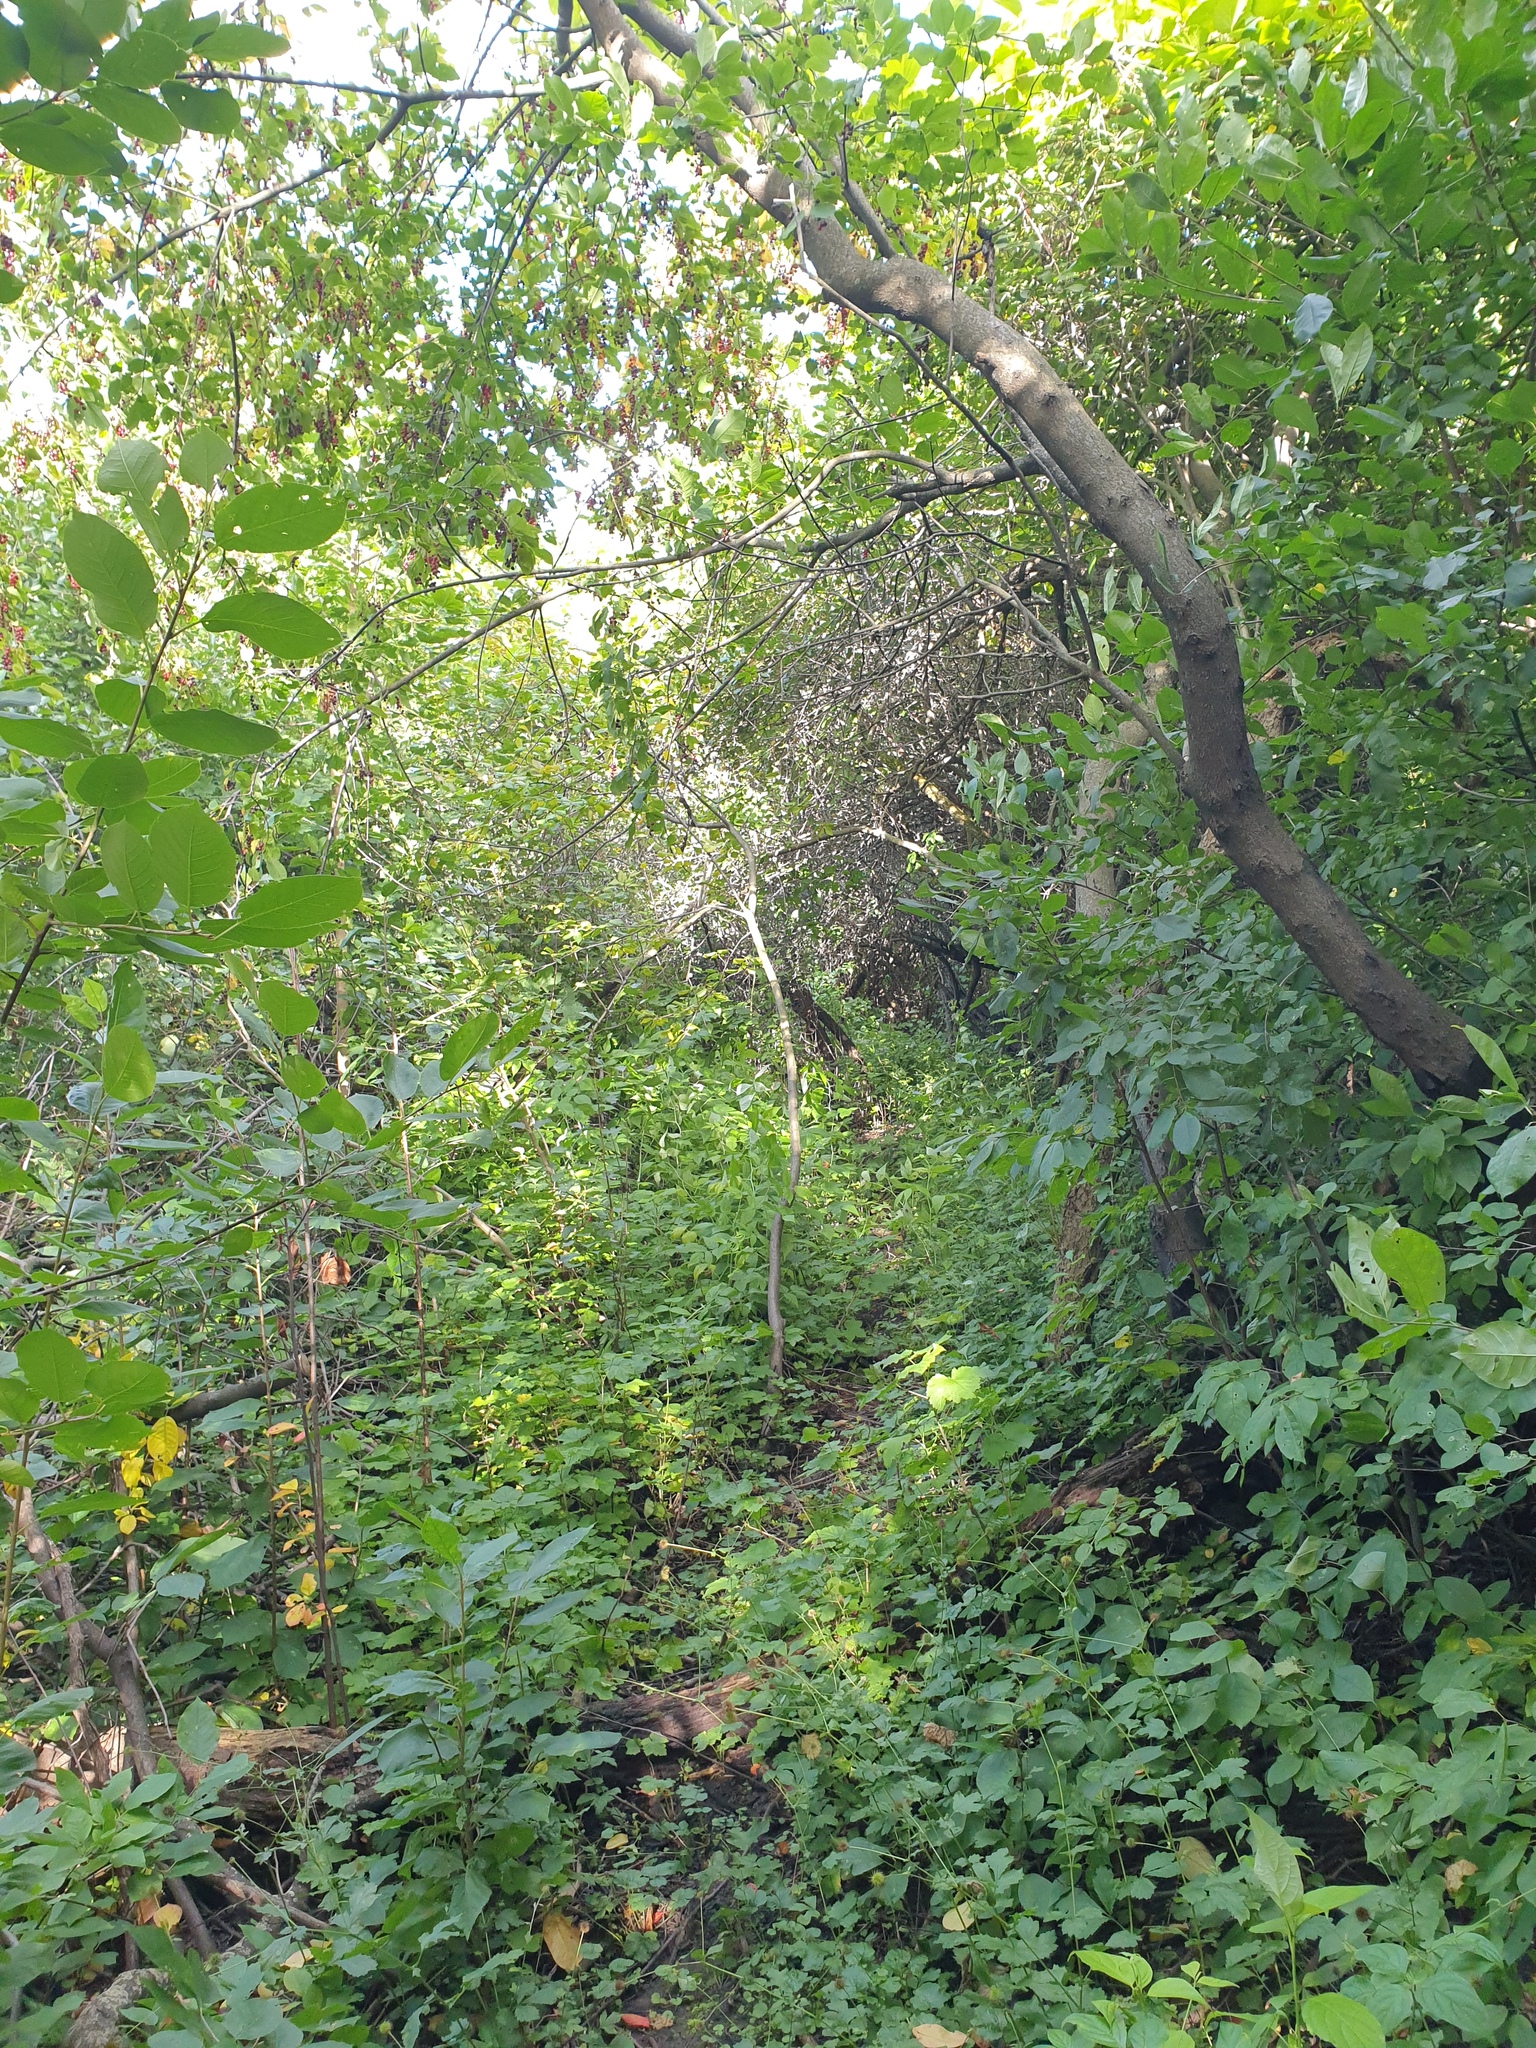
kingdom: Plantae
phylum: Tracheophyta
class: Magnoliopsida
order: Rosales
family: Rosaceae
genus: Prunus
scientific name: Prunus virginiana
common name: Chokecherry
